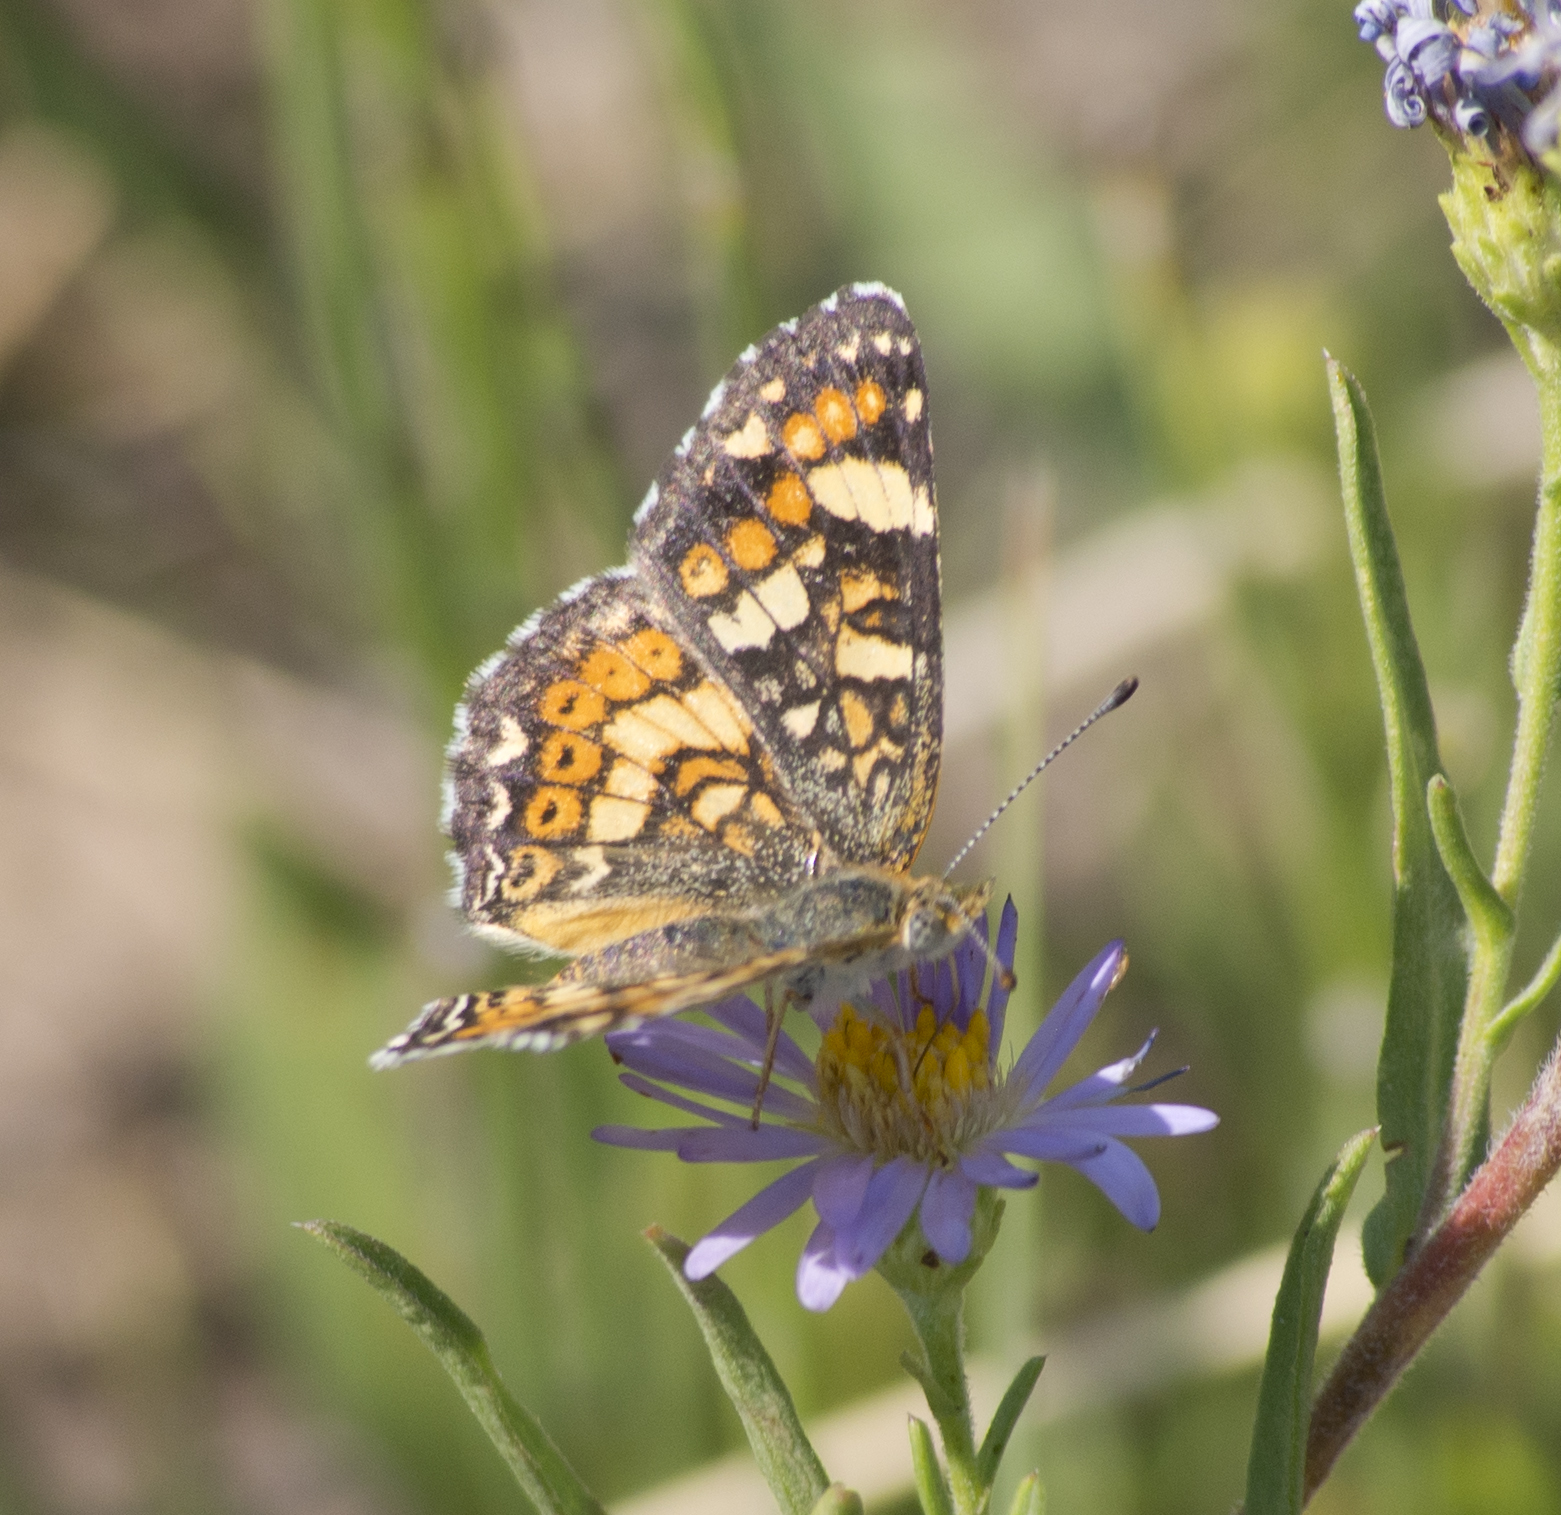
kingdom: Animalia
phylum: Arthropoda
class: Insecta
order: Lepidoptera
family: Nymphalidae
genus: Phyciodes
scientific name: Phyciodes tharos
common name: Pearl crescent
